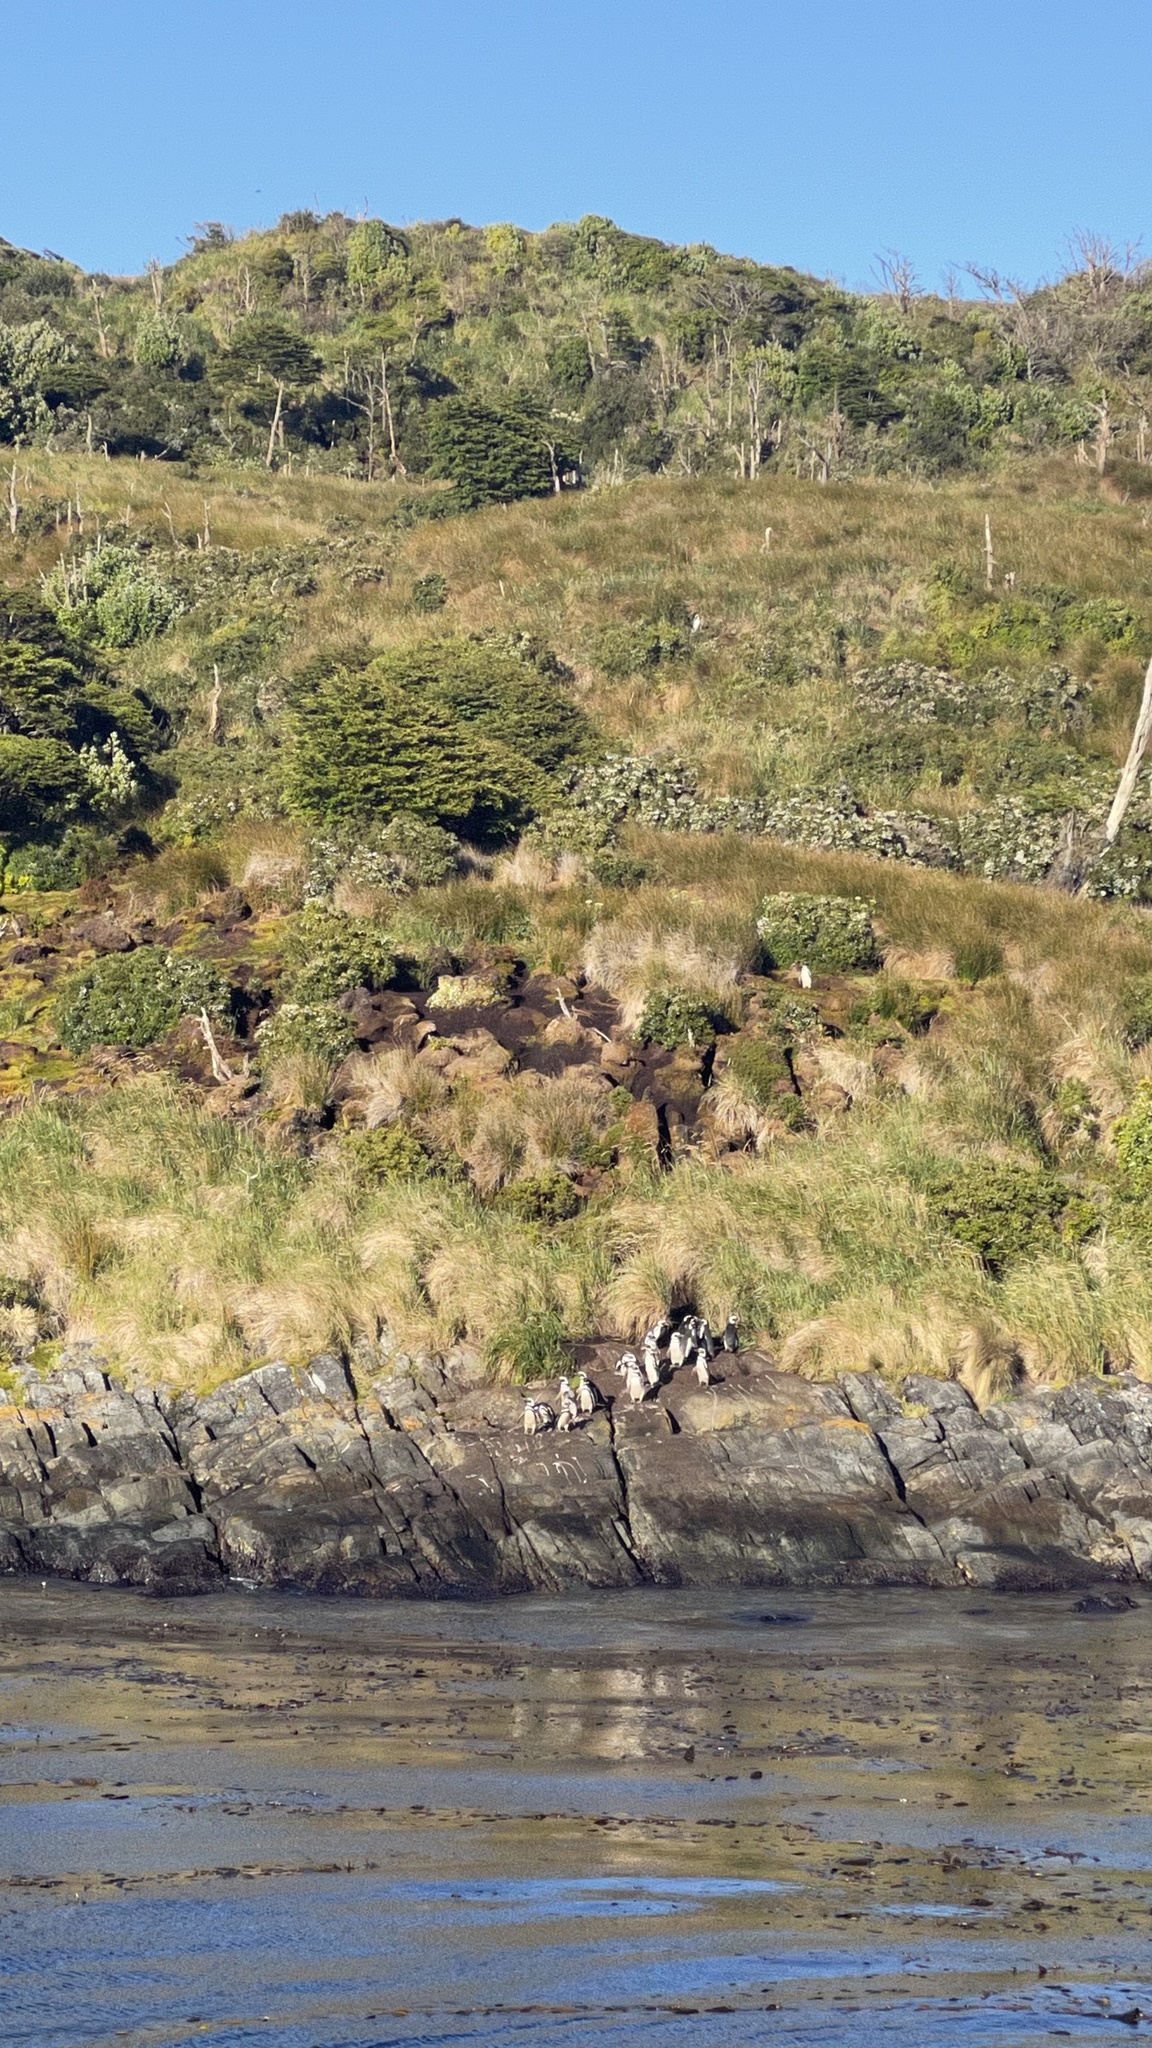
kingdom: Animalia
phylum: Chordata
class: Aves
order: Sphenisciformes
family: Spheniscidae
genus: Spheniscus
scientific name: Spheniscus magellanicus
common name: Magellanic penguin
